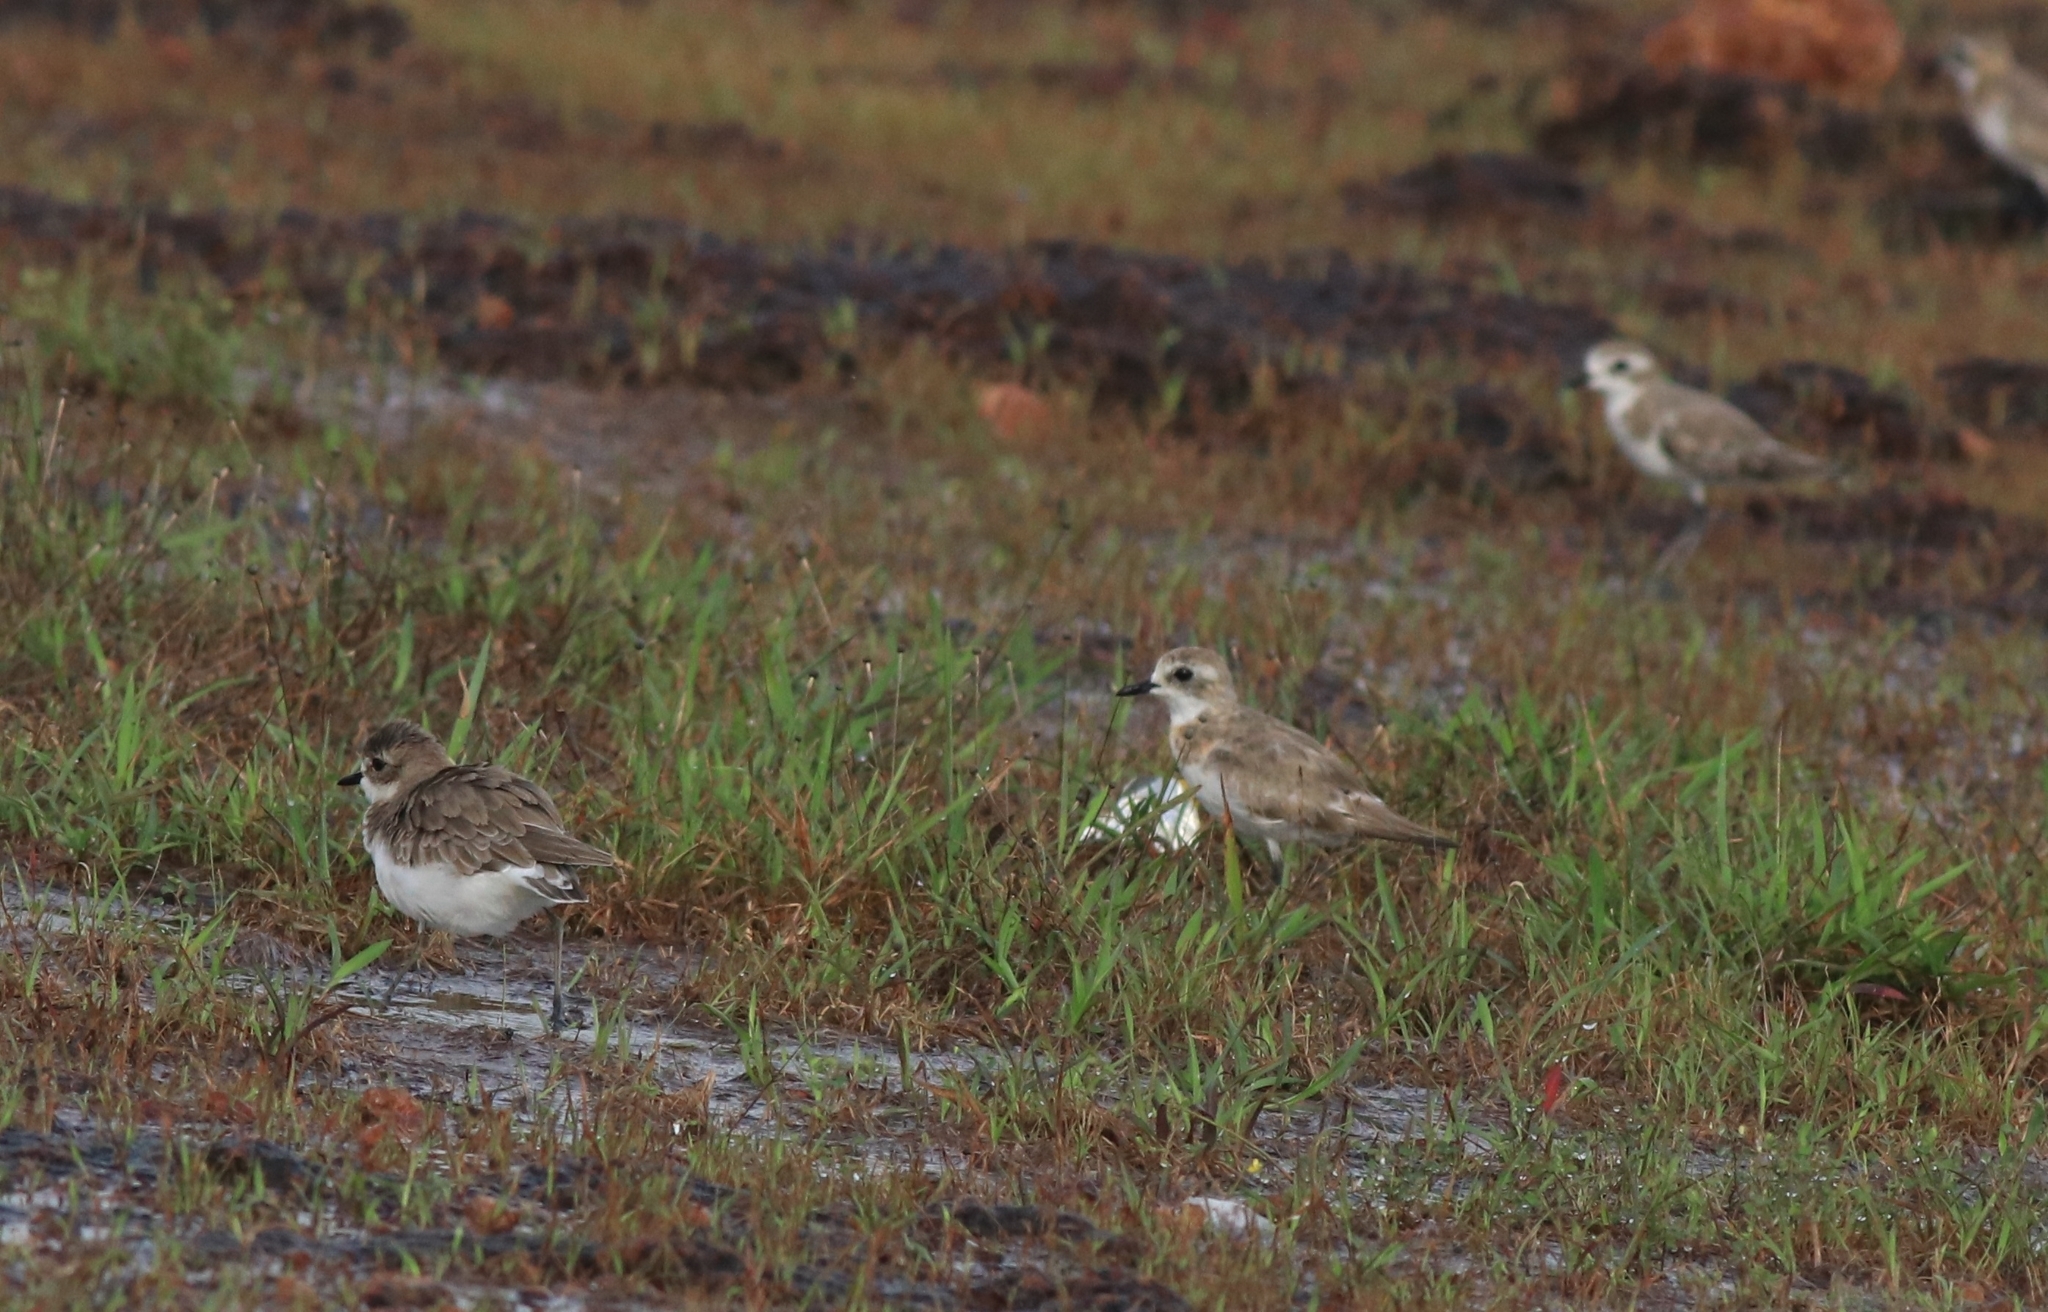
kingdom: Animalia
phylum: Chordata
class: Aves
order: Charadriiformes
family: Charadriidae
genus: Anarhynchus
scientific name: Anarhynchus
